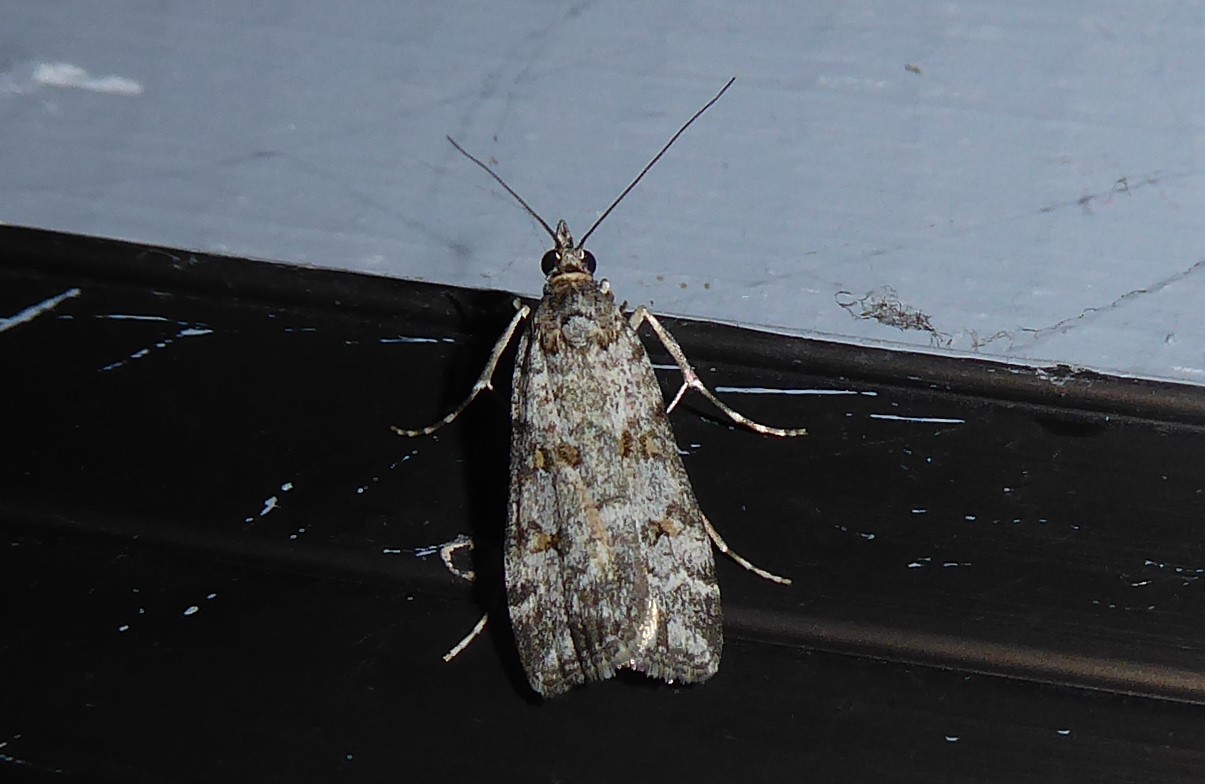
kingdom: Animalia
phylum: Arthropoda
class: Insecta
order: Lepidoptera
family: Crambidae
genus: Eudonia
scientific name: Eudonia diphtheralis
